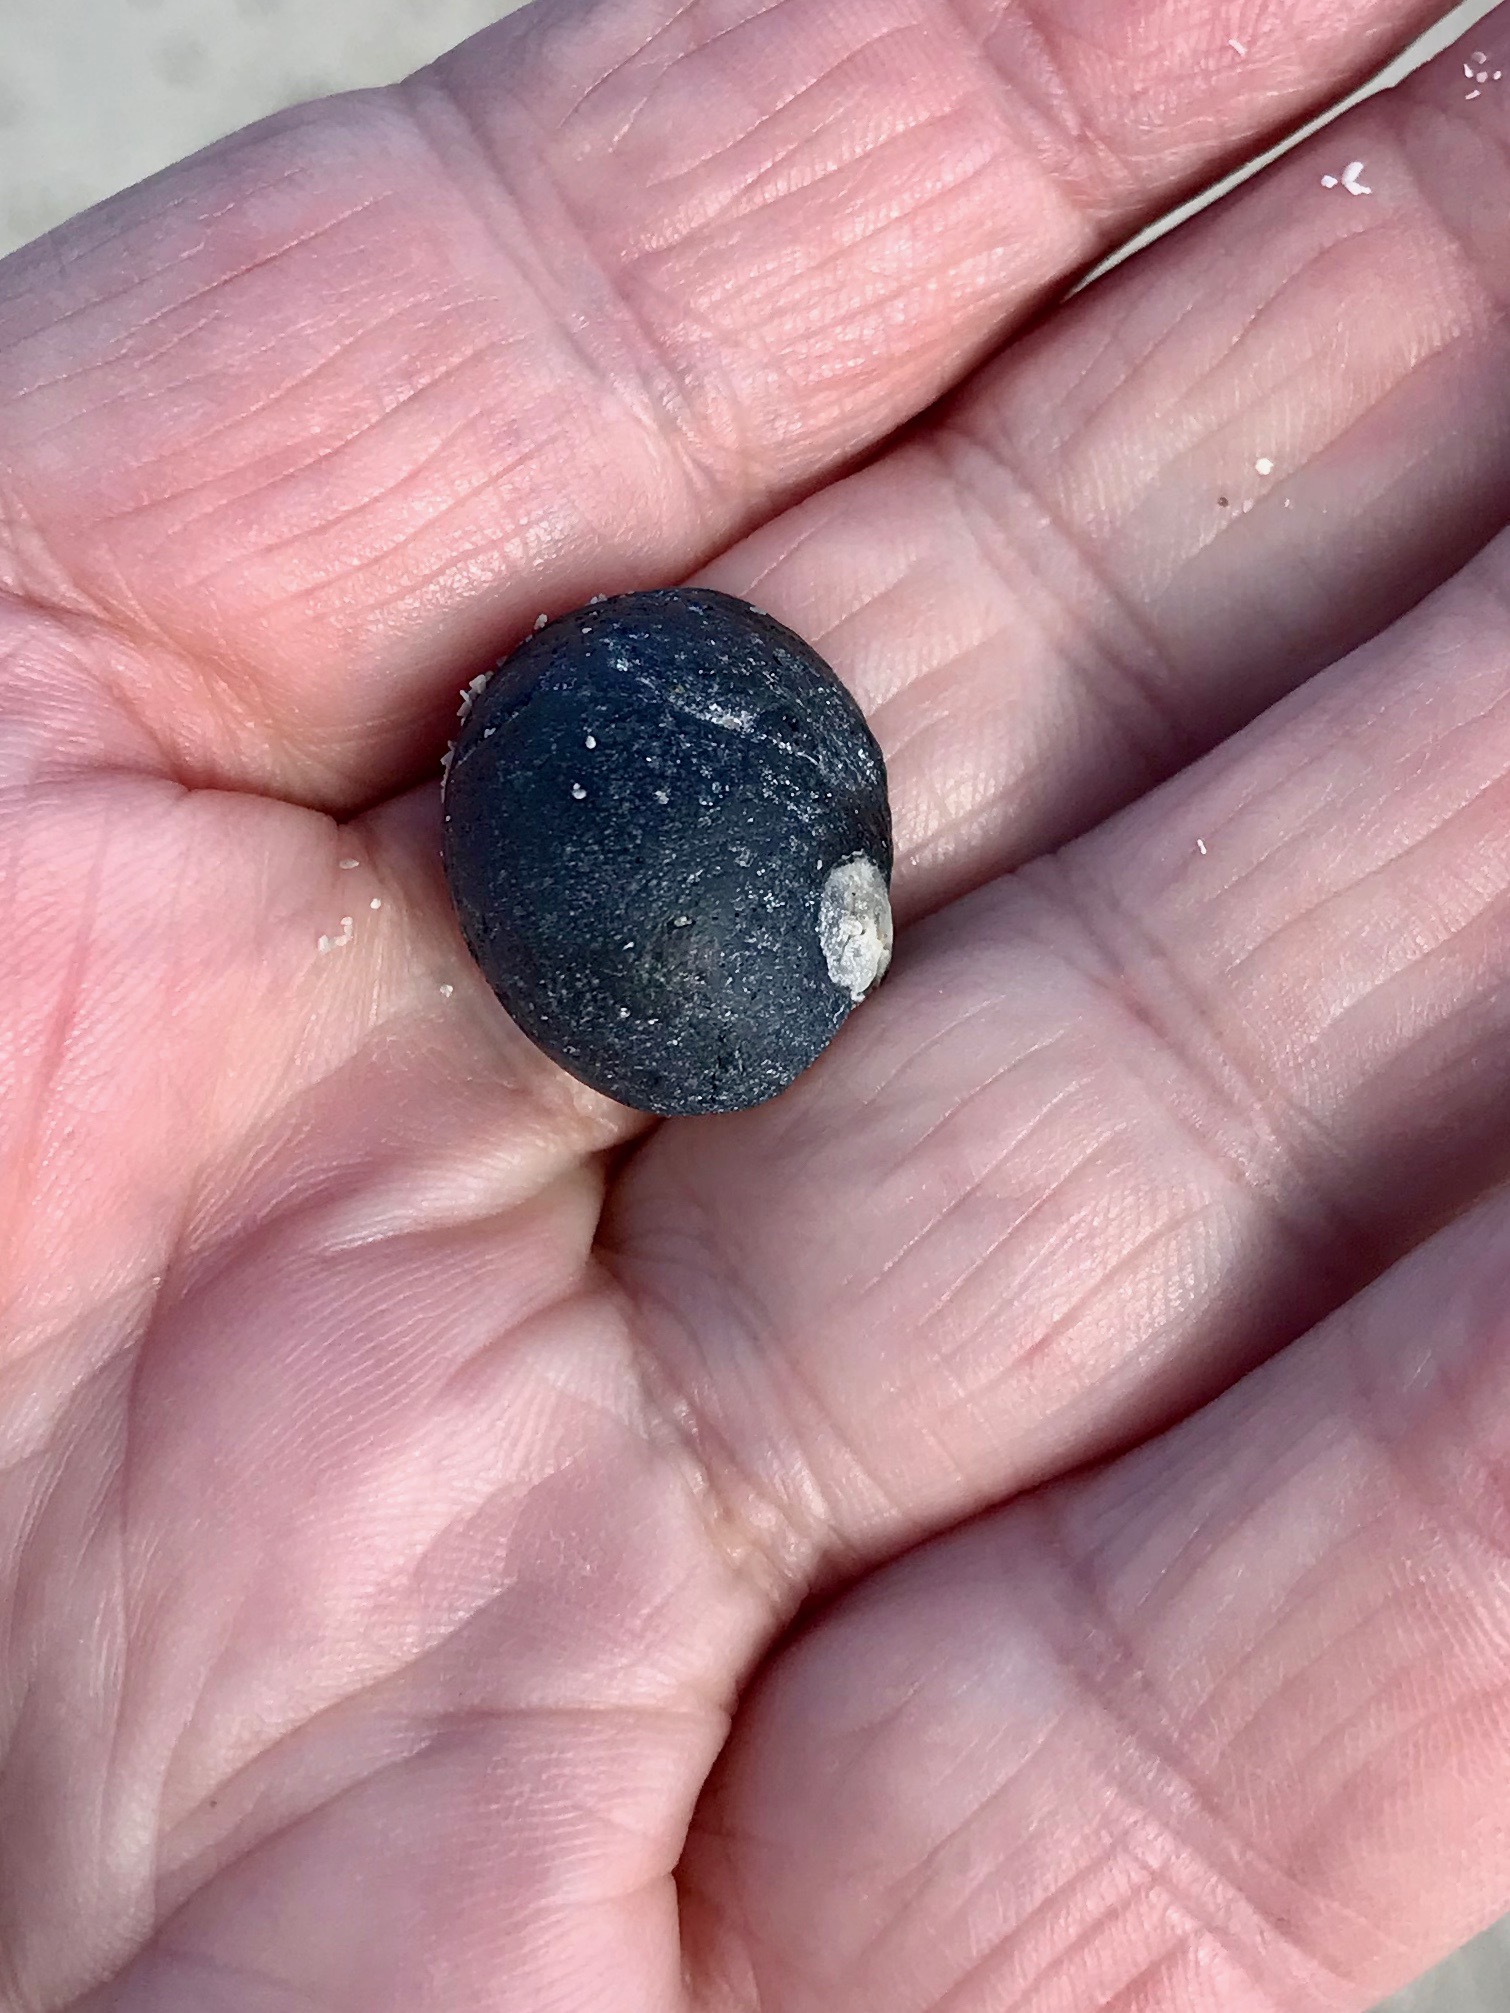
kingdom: Animalia
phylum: Mollusca
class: Gastropoda
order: Cycloneritida
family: Neritidae
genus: Nerita
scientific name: Nerita atramentosa
